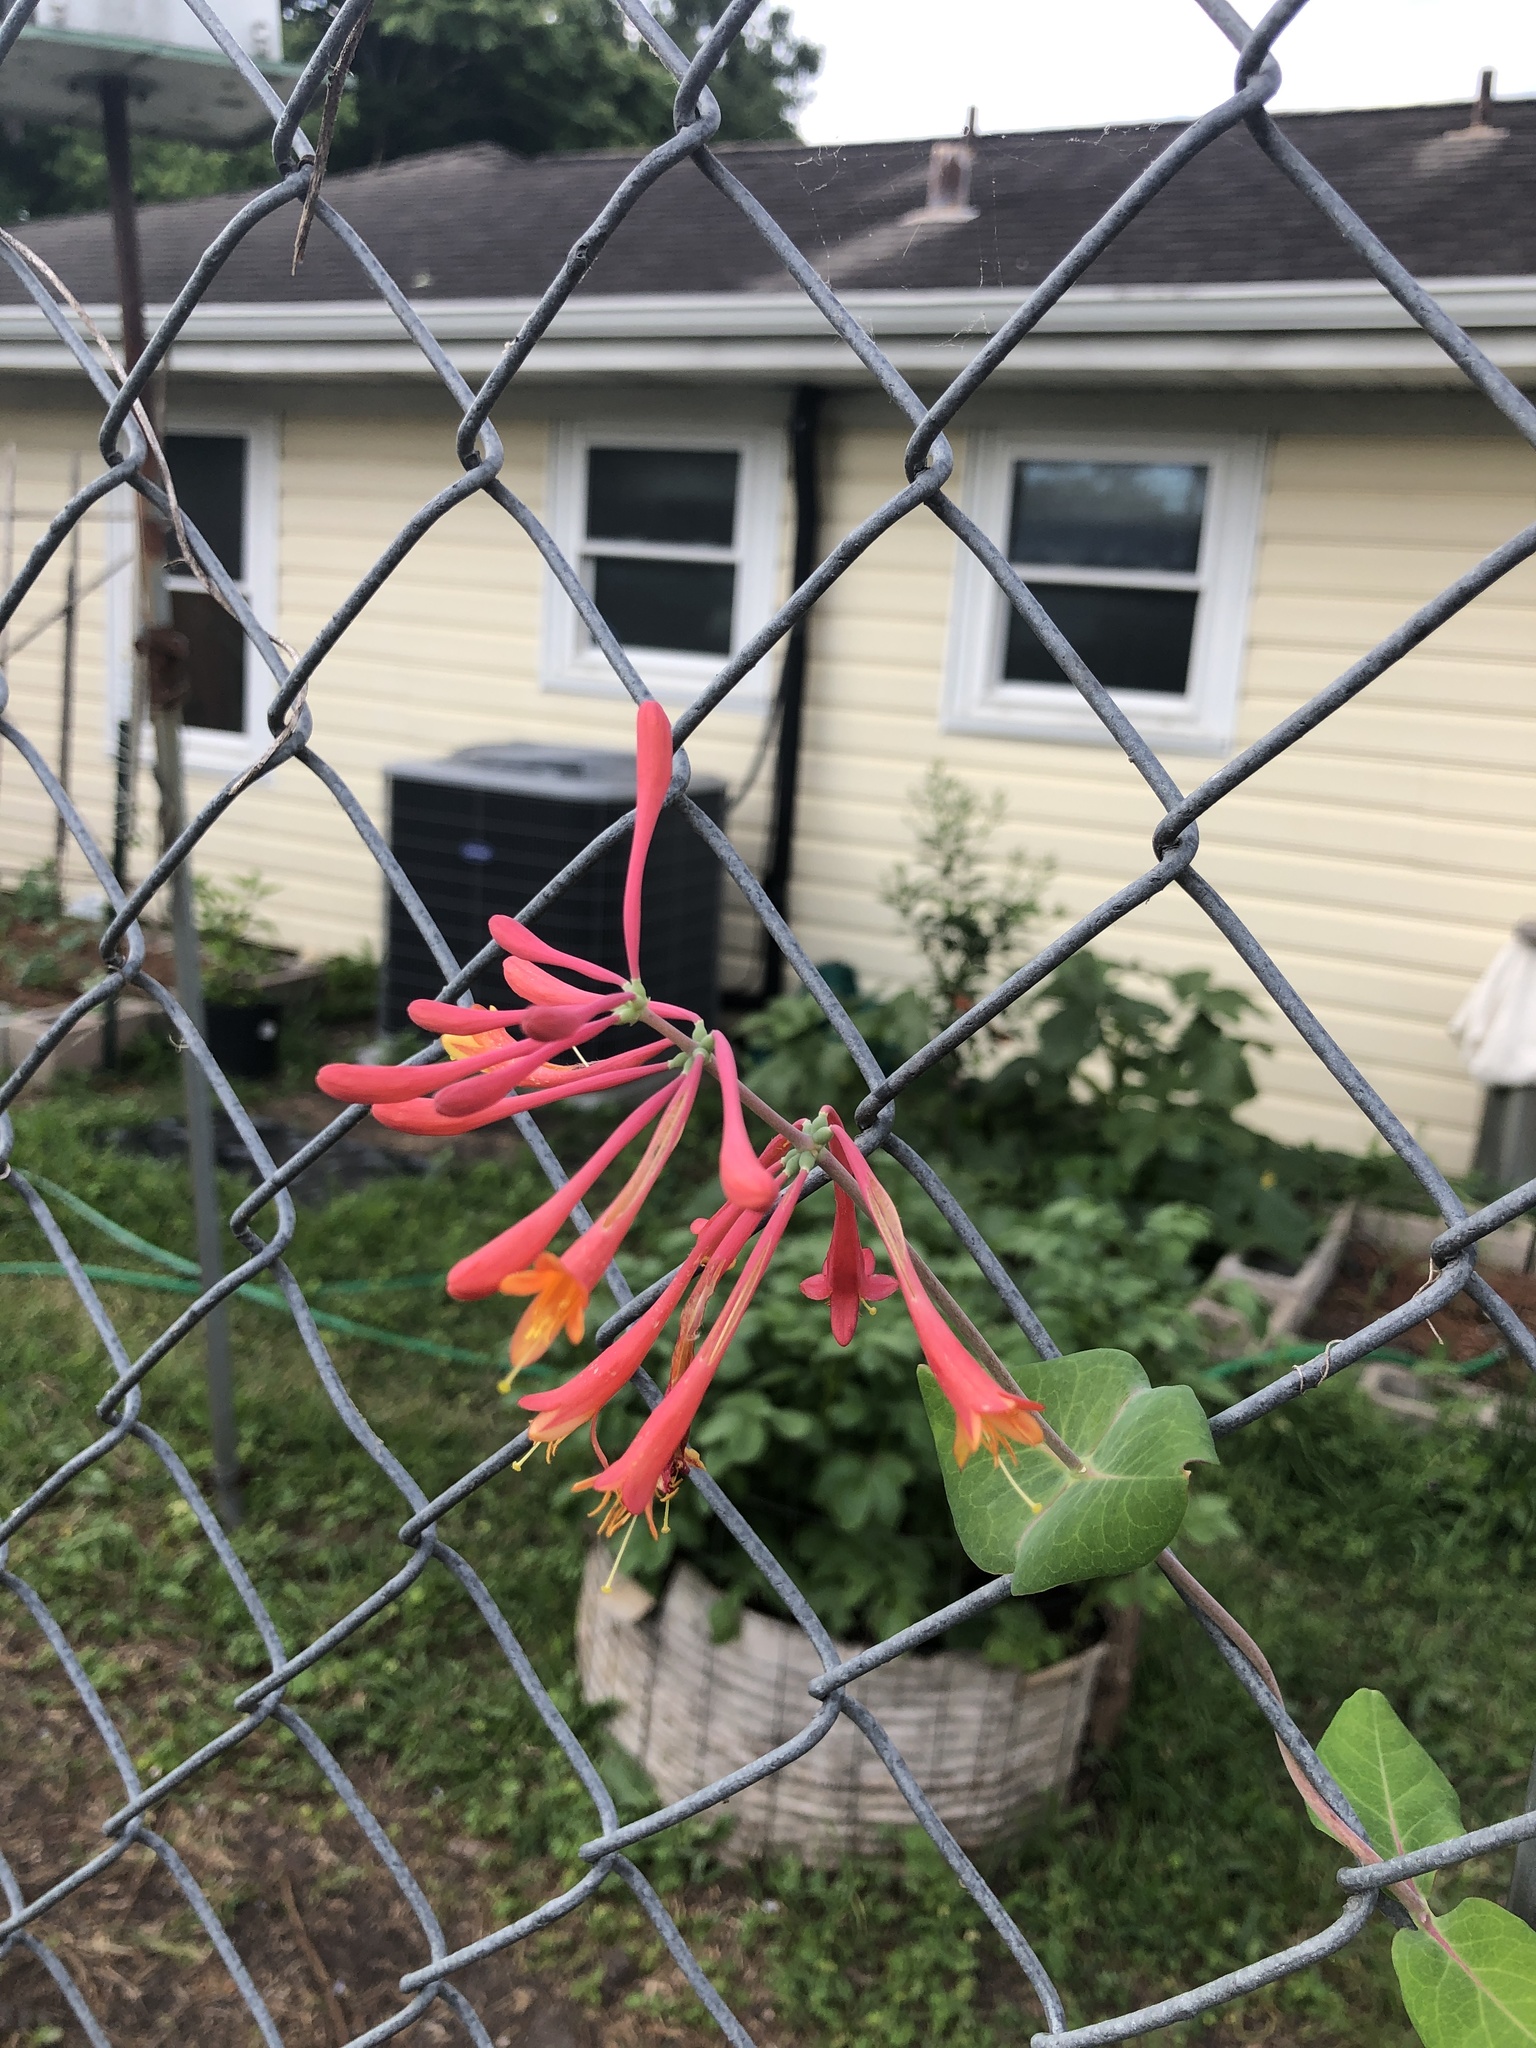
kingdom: Plantae
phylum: Tracheophyta
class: Magnoliopsida
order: Dipsacales
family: Caprifoliaceae
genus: Lonicera
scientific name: Lonicera sempervirens
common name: Coral honeysuckle
